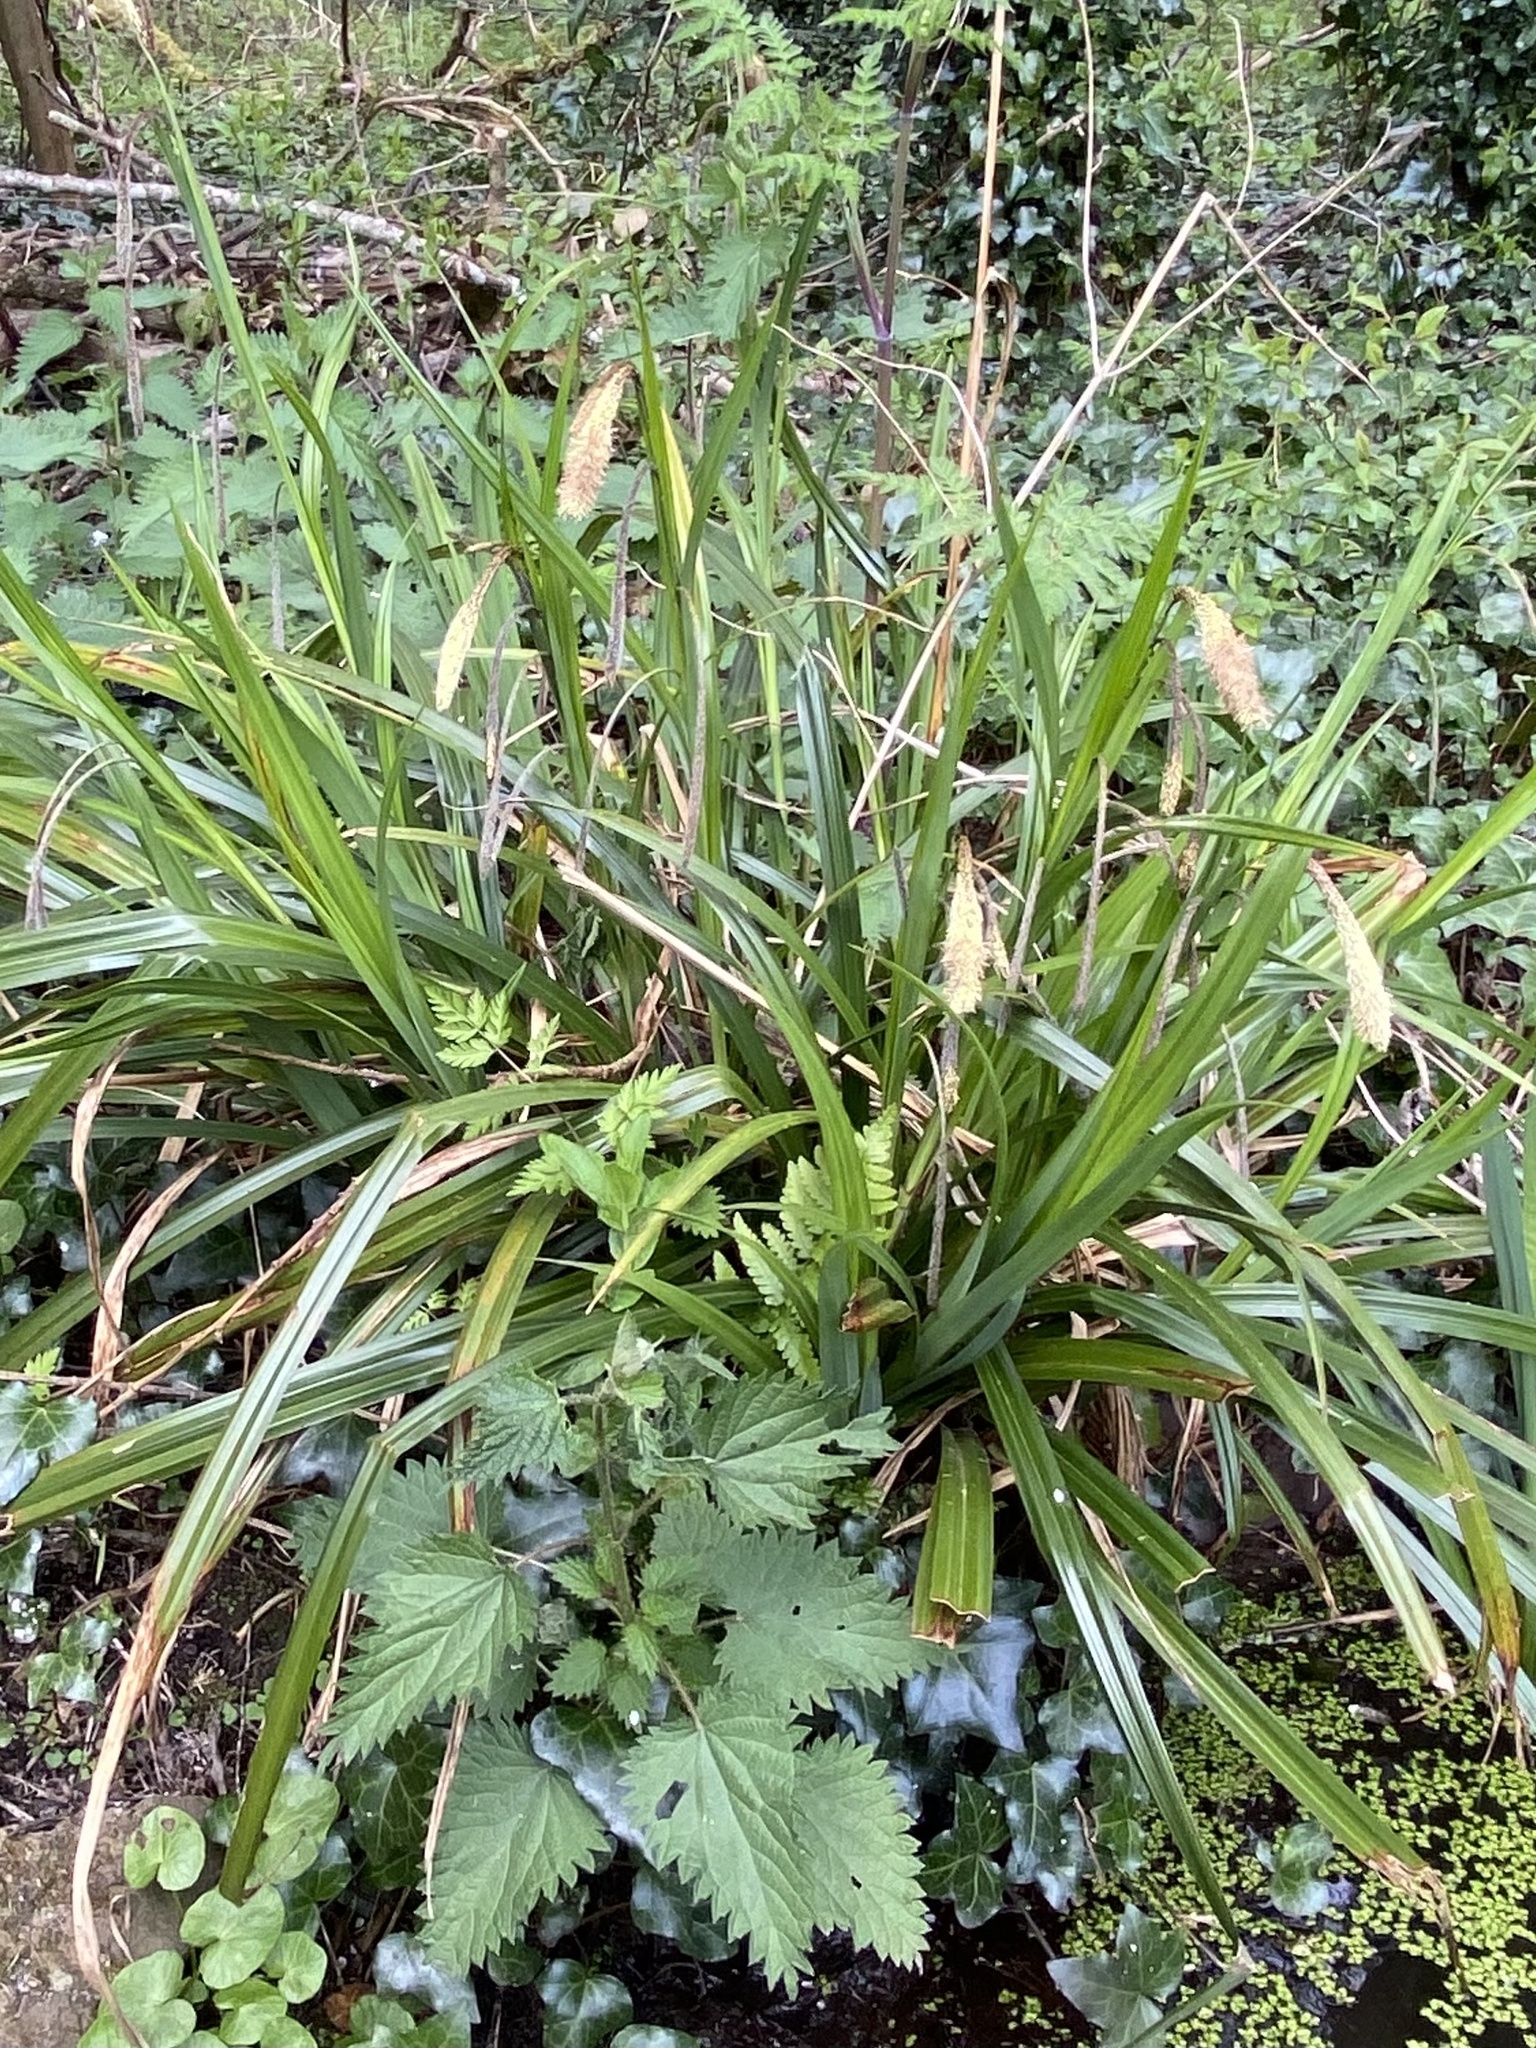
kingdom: Plantae
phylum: Tracheophyta
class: Liliopsida
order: Poales
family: Cyperaceae
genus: Carex
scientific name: Carex pendula
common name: Pendulous sedge
